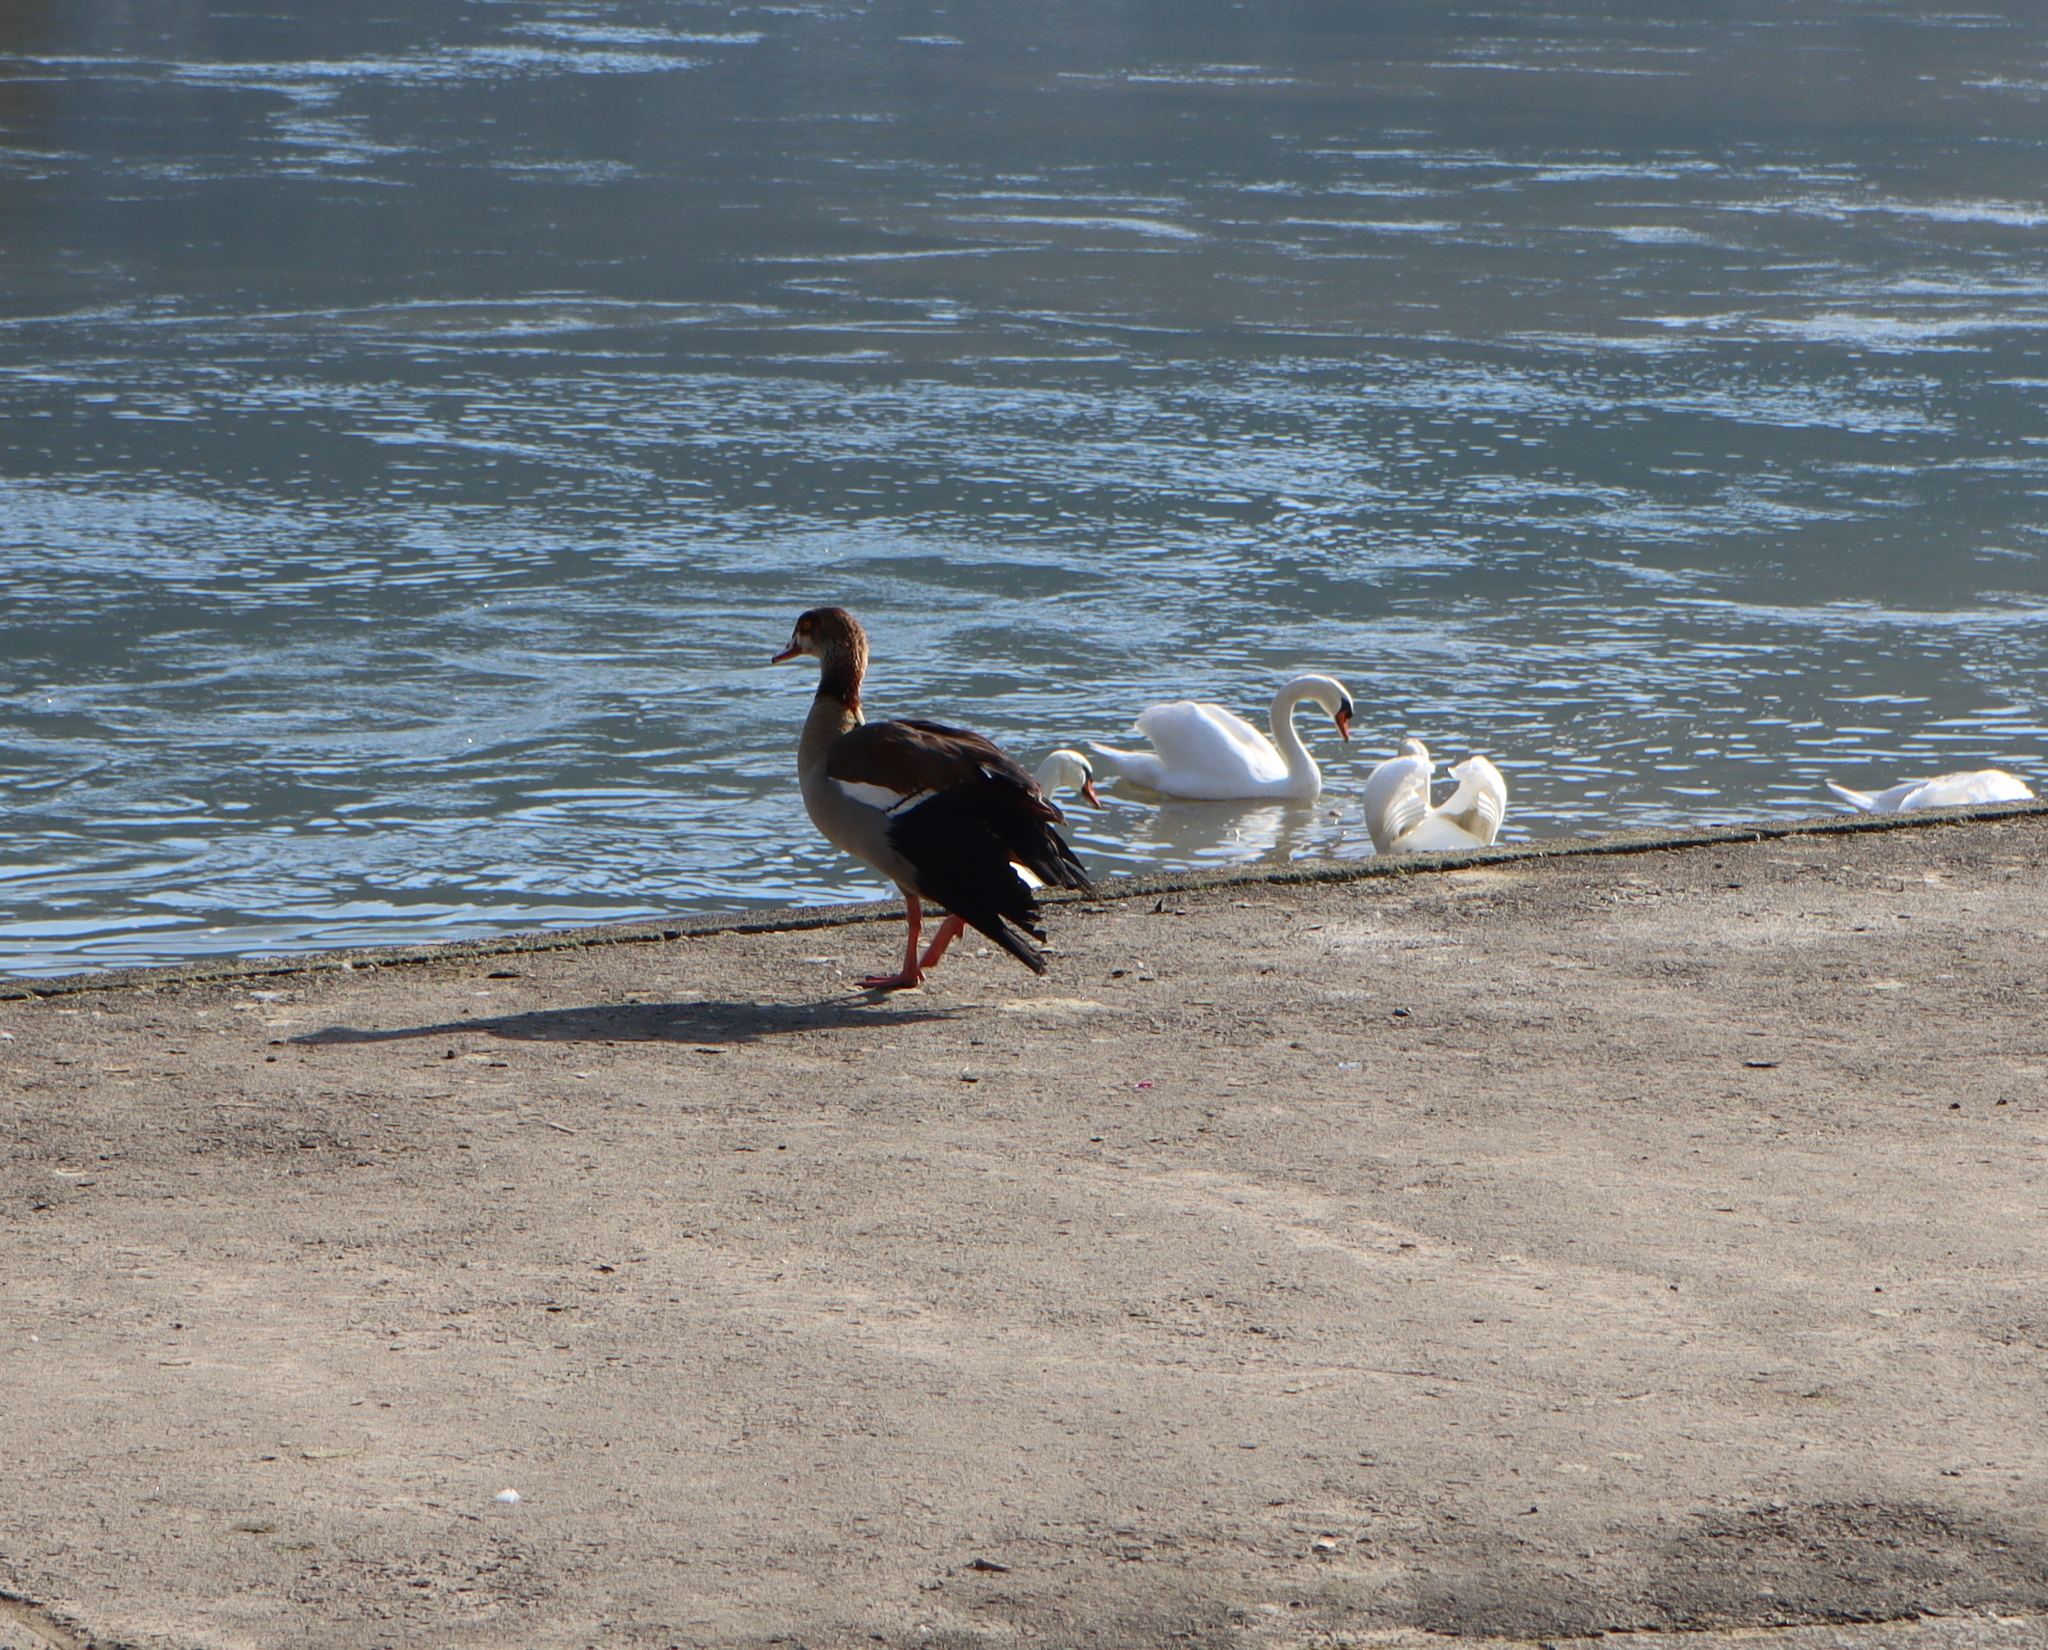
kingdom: Animalia
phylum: Chordata
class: Aves
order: Anseriformes
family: Anatidae
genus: Alopochen
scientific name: Alopochen aegyptiaca
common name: Egyptian goose
